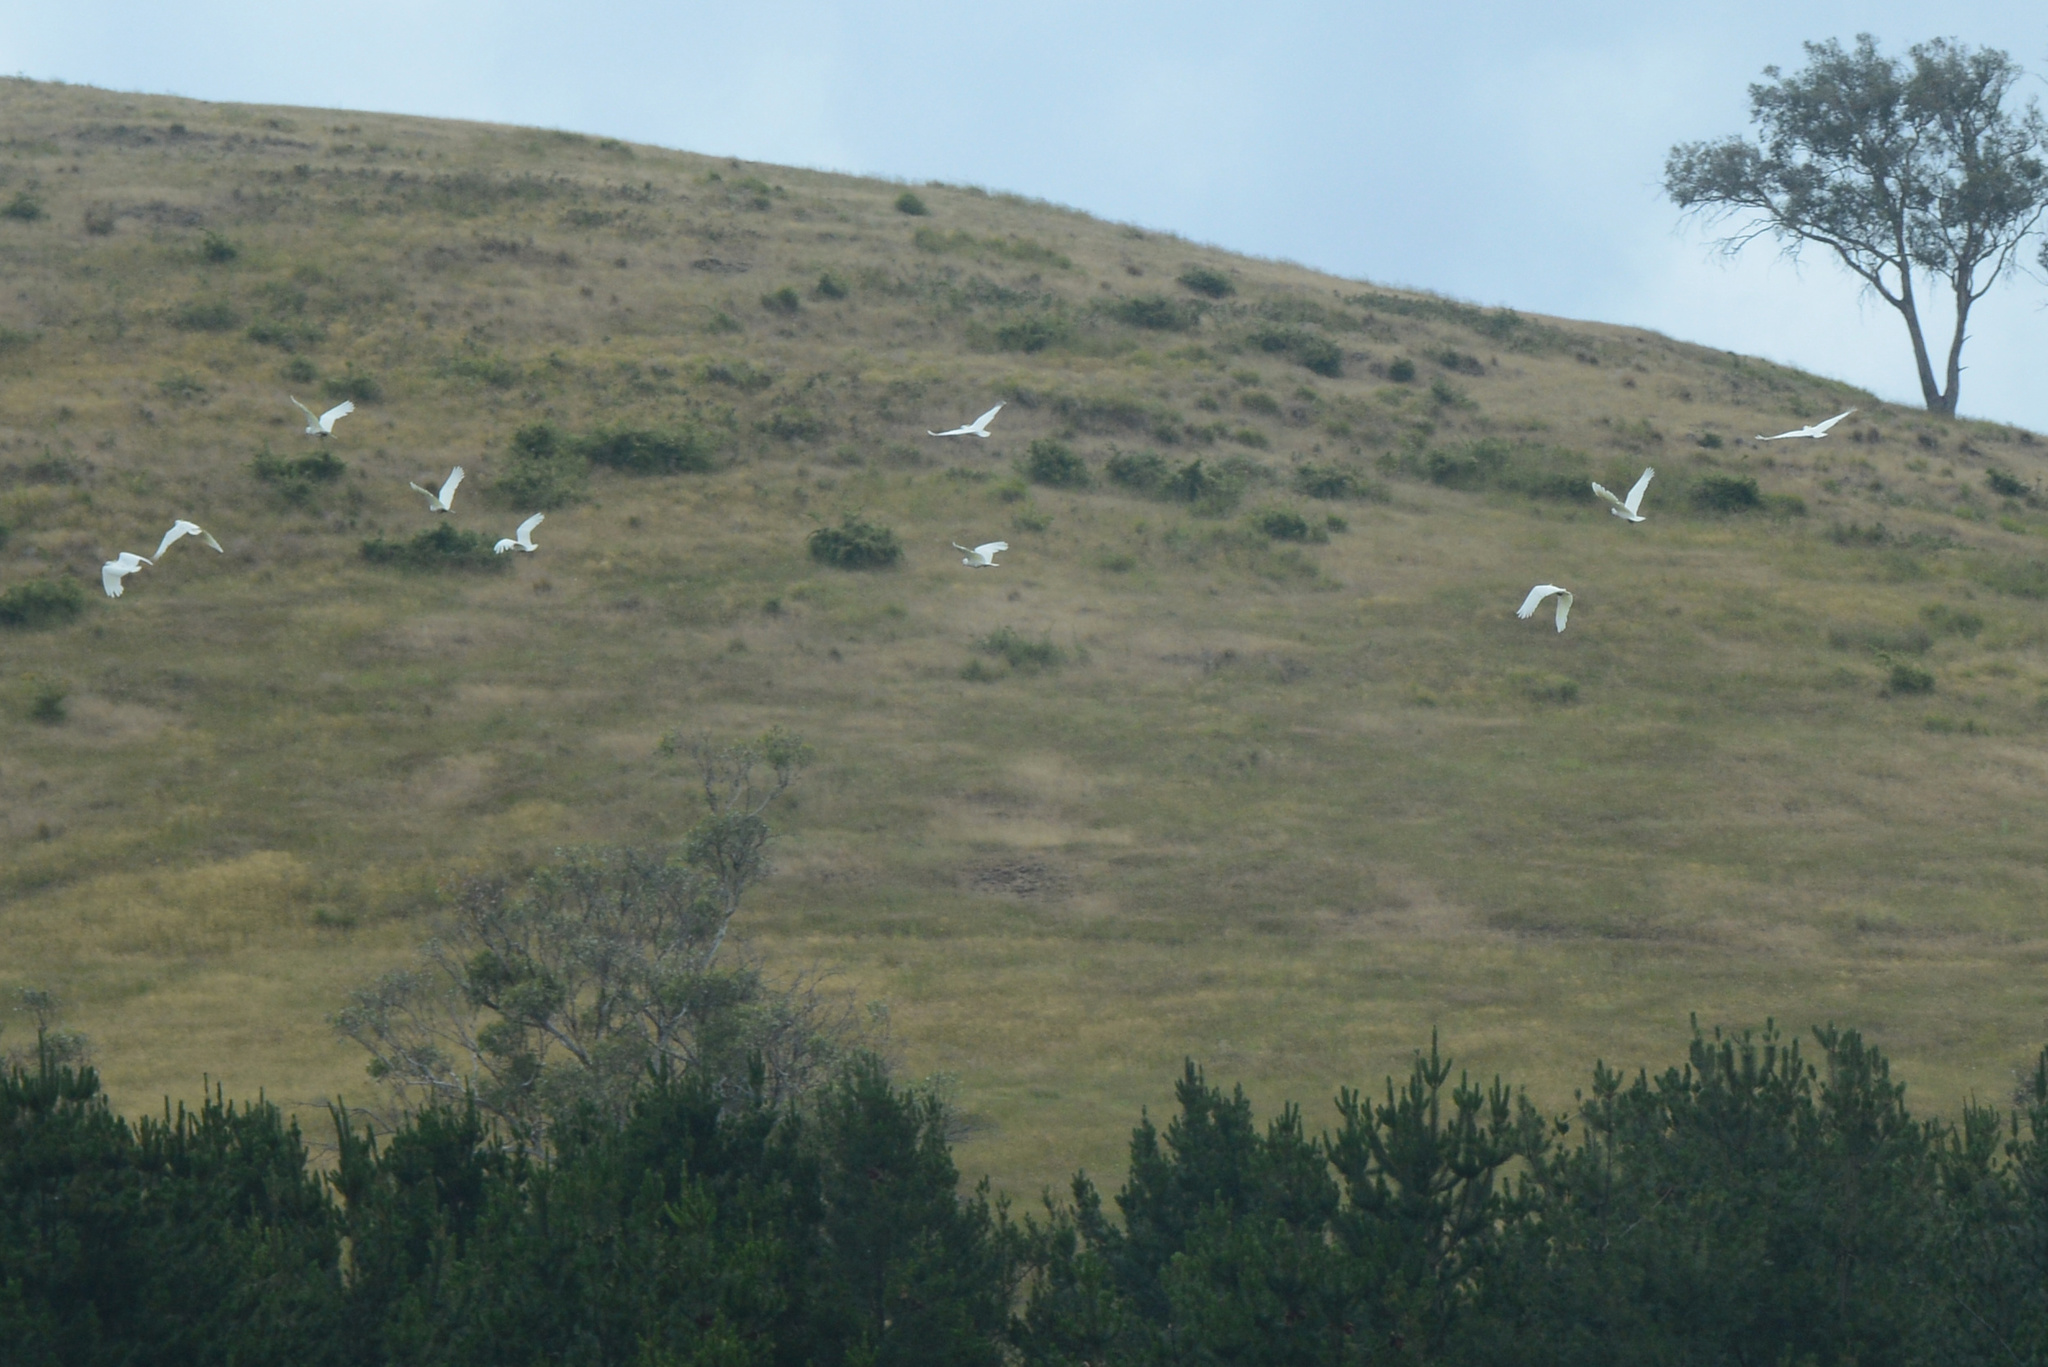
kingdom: Animalia
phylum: Chordata
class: Aves
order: Psittaciformes
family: Psittacidae
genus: Cacatua
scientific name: Cacatua galerita
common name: Sulphur-crested cockatoo
